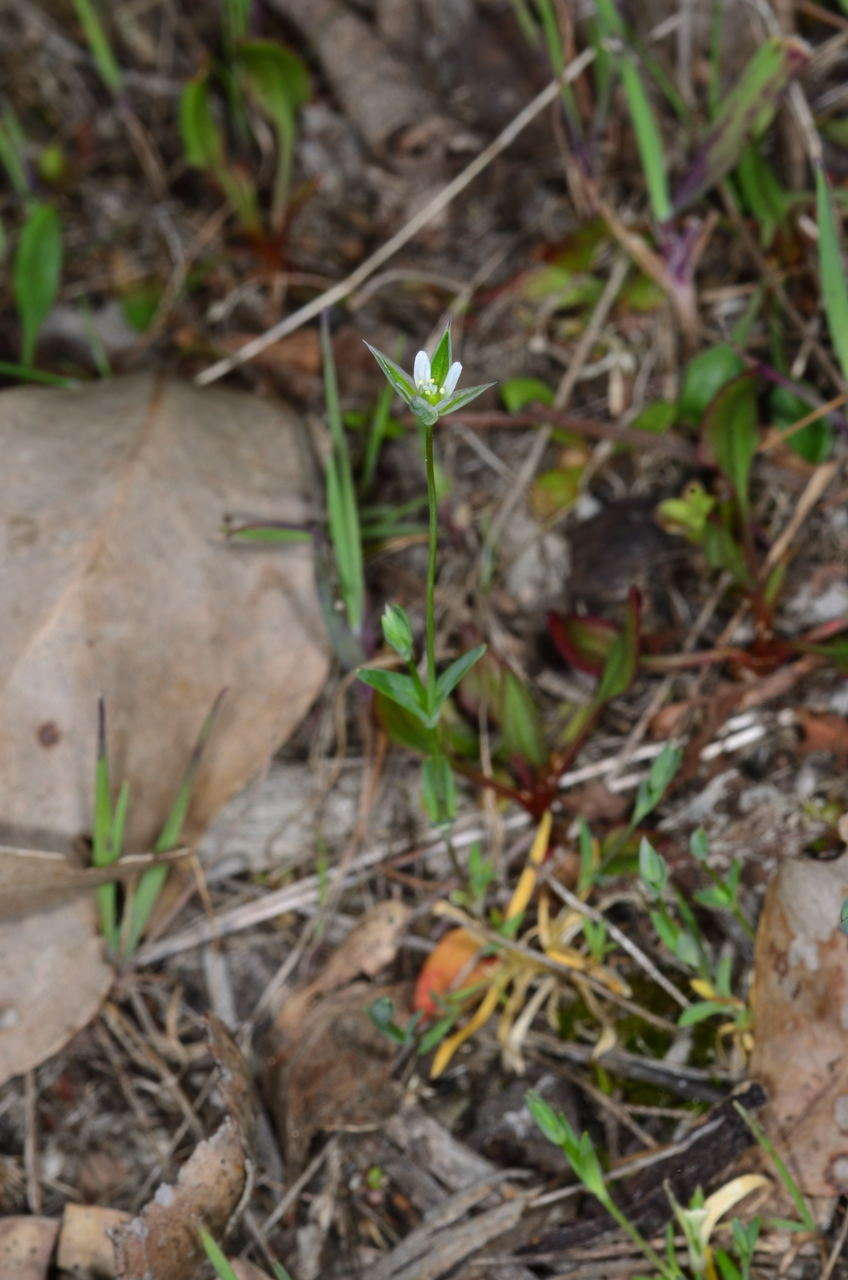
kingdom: Plantae
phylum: Tracheophyta
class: Magnoliopsida
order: Caryophyllales
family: Caryophyllaceae
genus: Moenchia
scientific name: Moenchia erecta
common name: Upright chickweed
